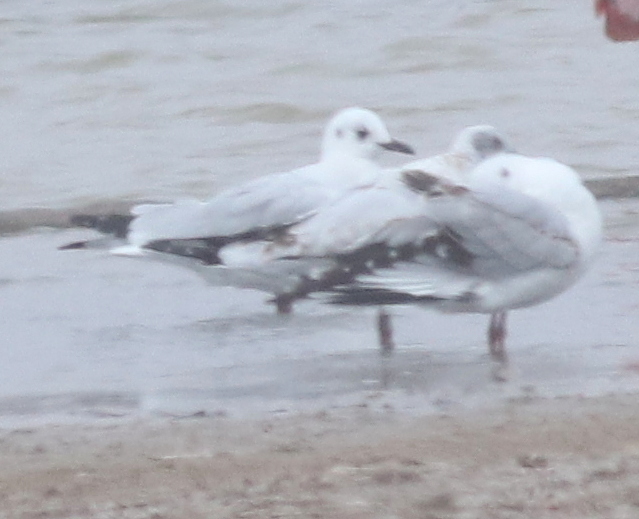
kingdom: Animalia
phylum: Chordata
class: Aves
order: Charadriiformes
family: Laridae
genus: Chroicocephalus
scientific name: Chroicocephalus serranus
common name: Andean gull
